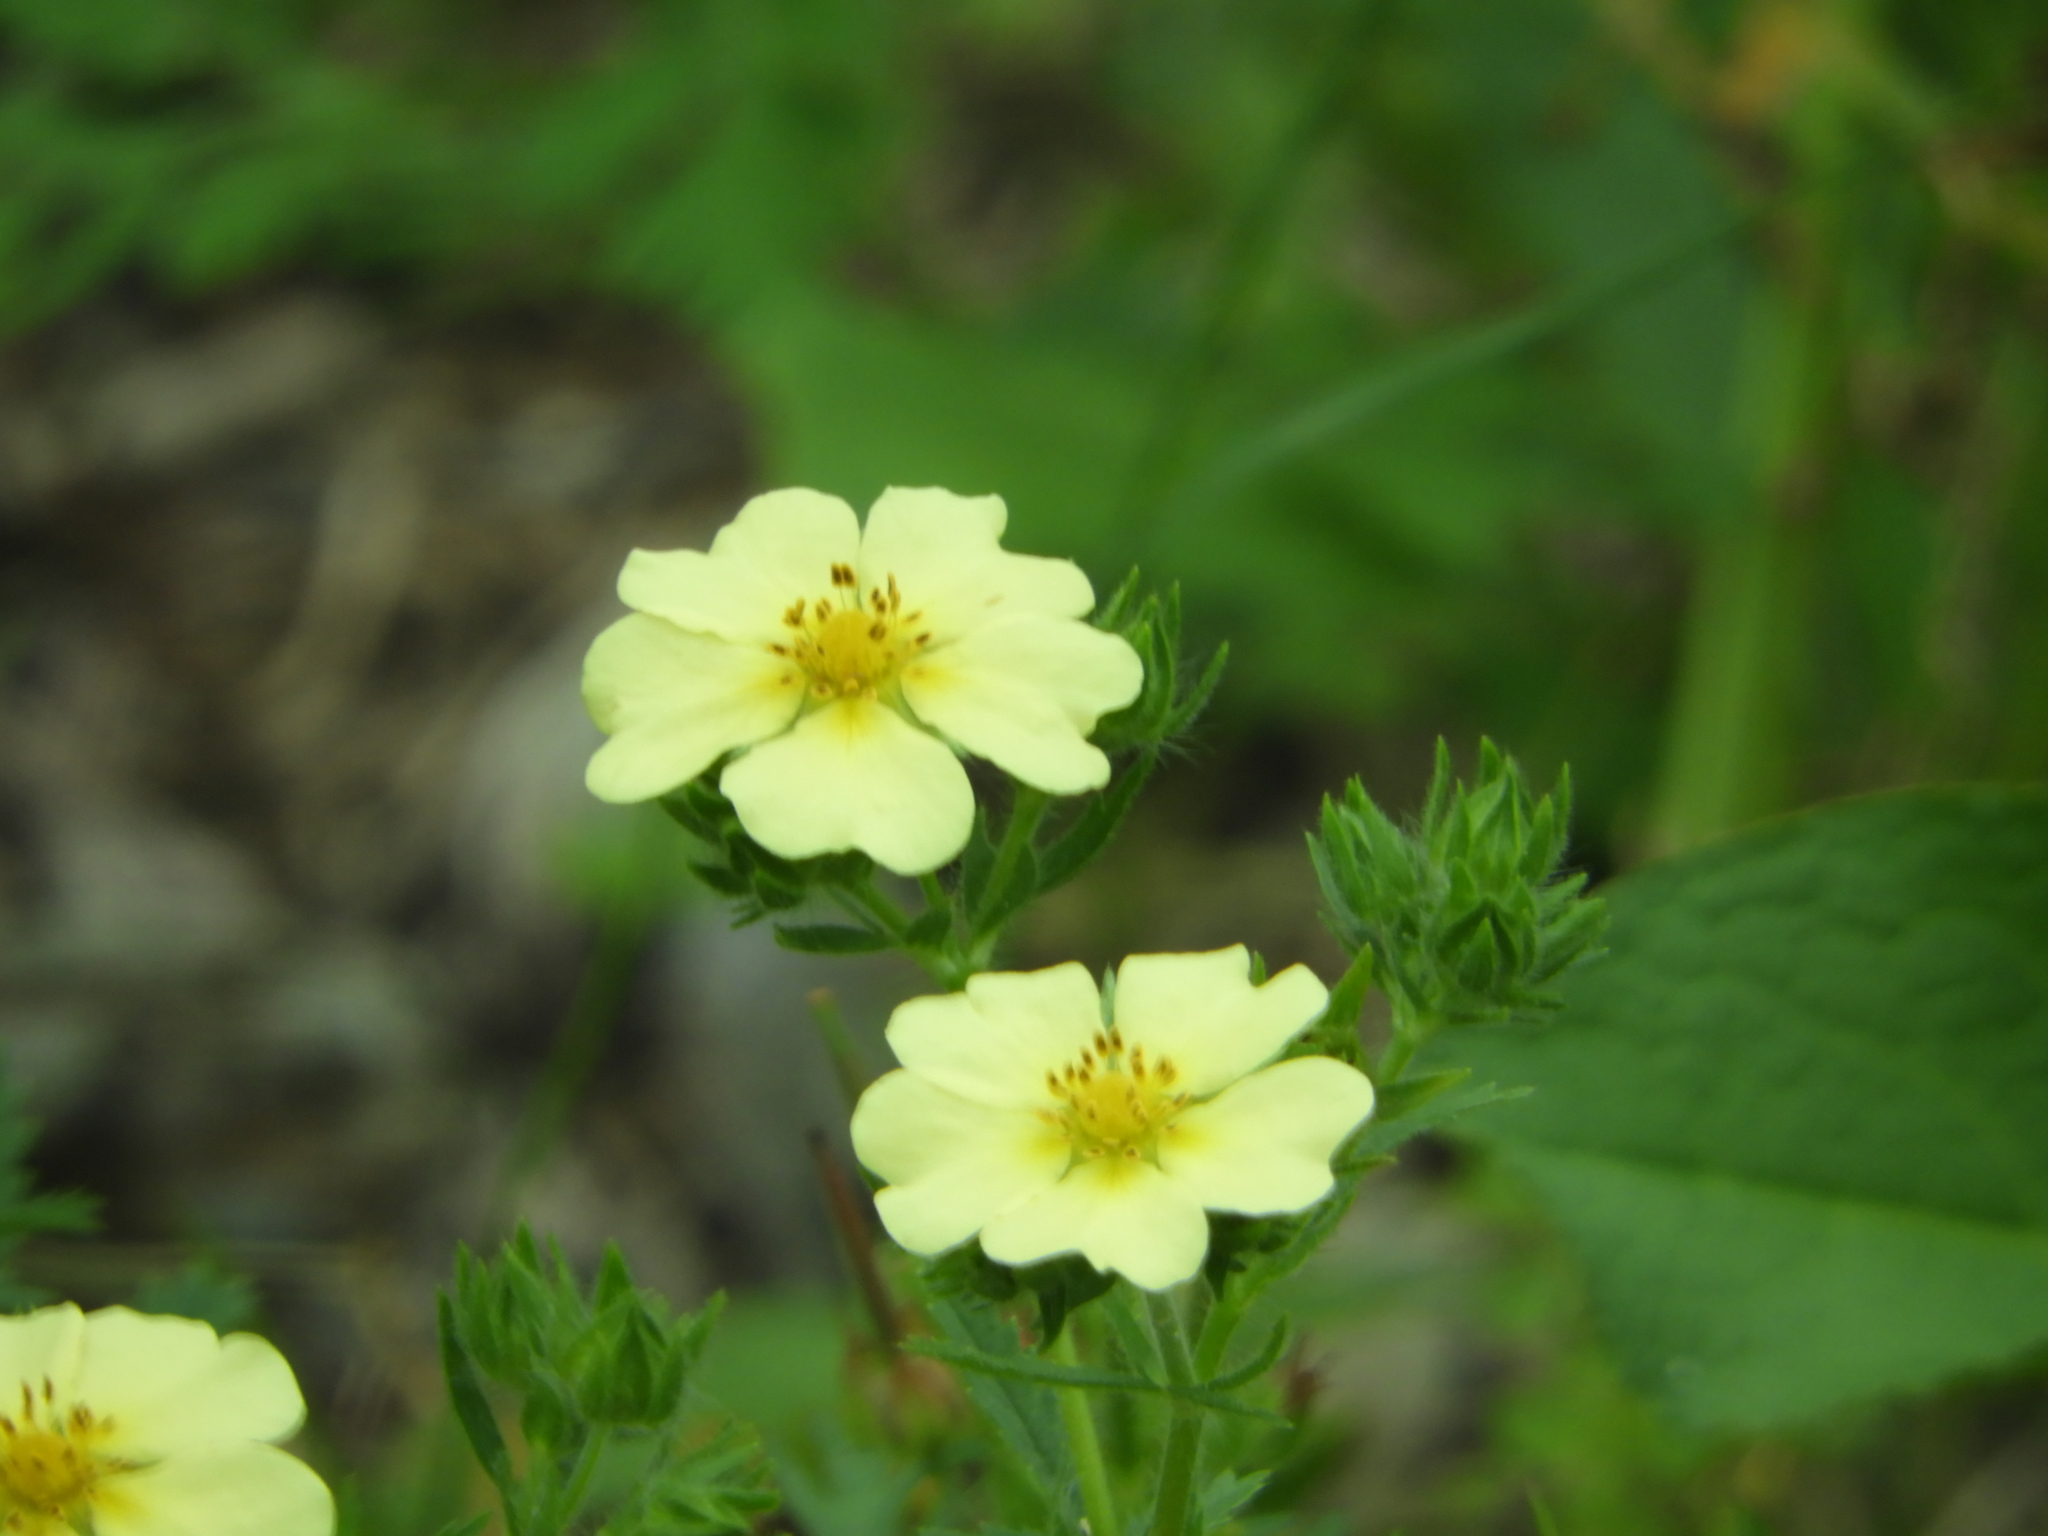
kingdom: Plantae
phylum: Tracheophyta
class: Magnoliopsida
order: Rosales
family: Rosaceae
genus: Potentilla
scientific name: Potentilla recta
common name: Sulphur cinquefoil
